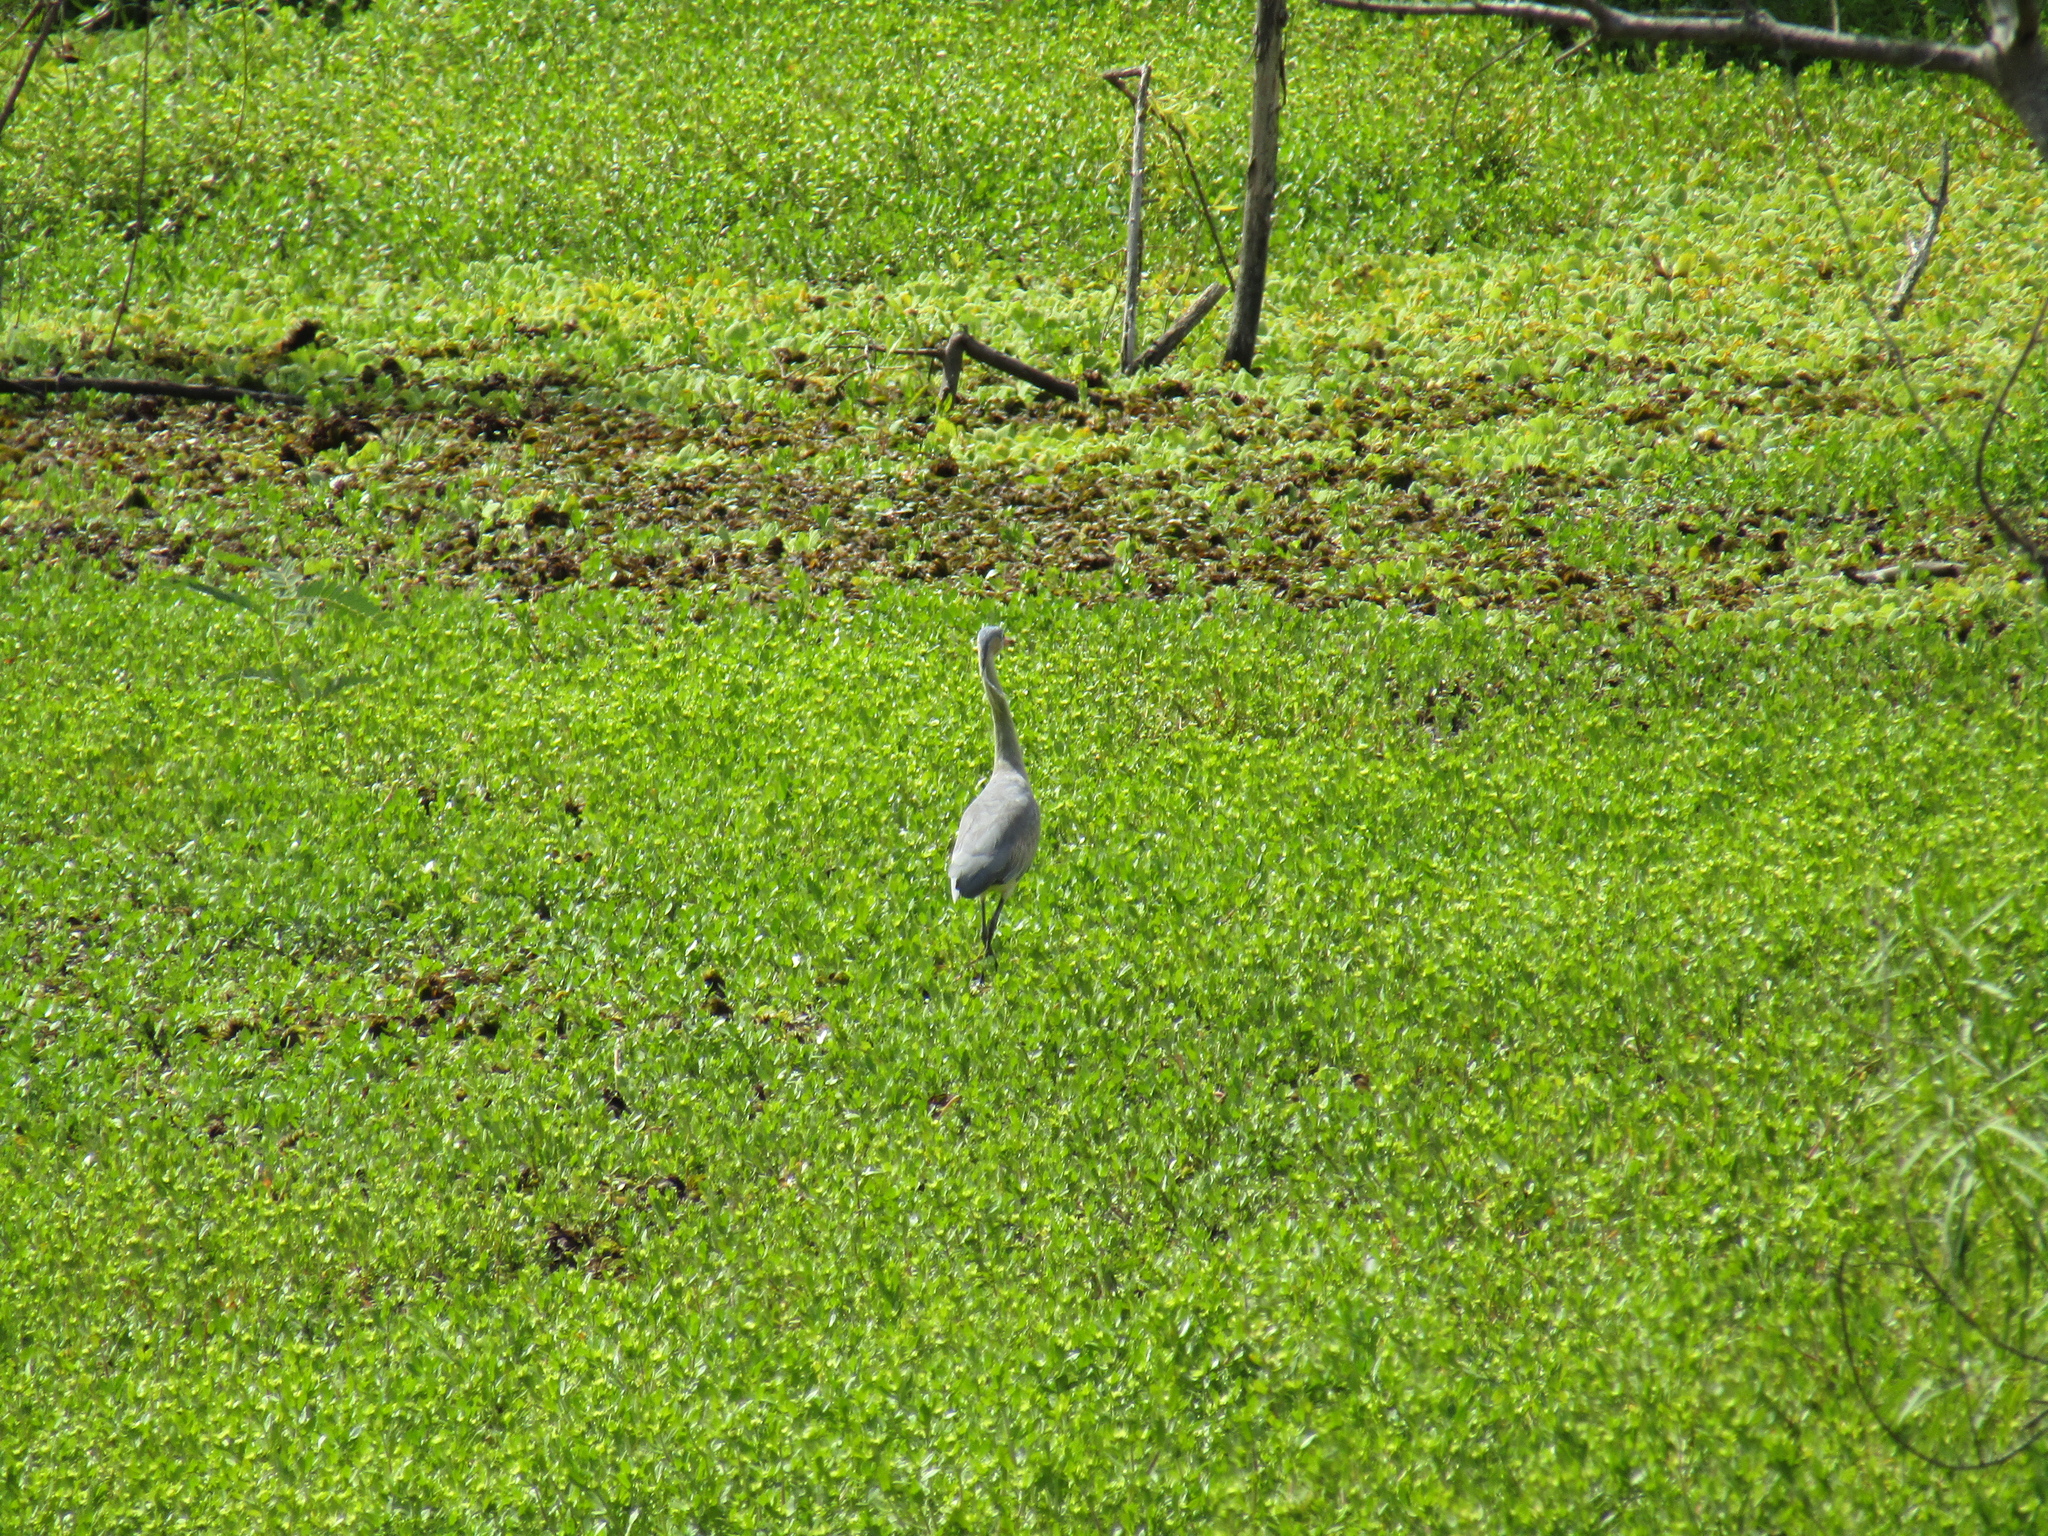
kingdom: Animalia
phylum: Chordata
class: Aves
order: Pelecaniformes
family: Ardeidae
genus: Syrigma
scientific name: Syrigma sibilatrix
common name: Whistling heron
